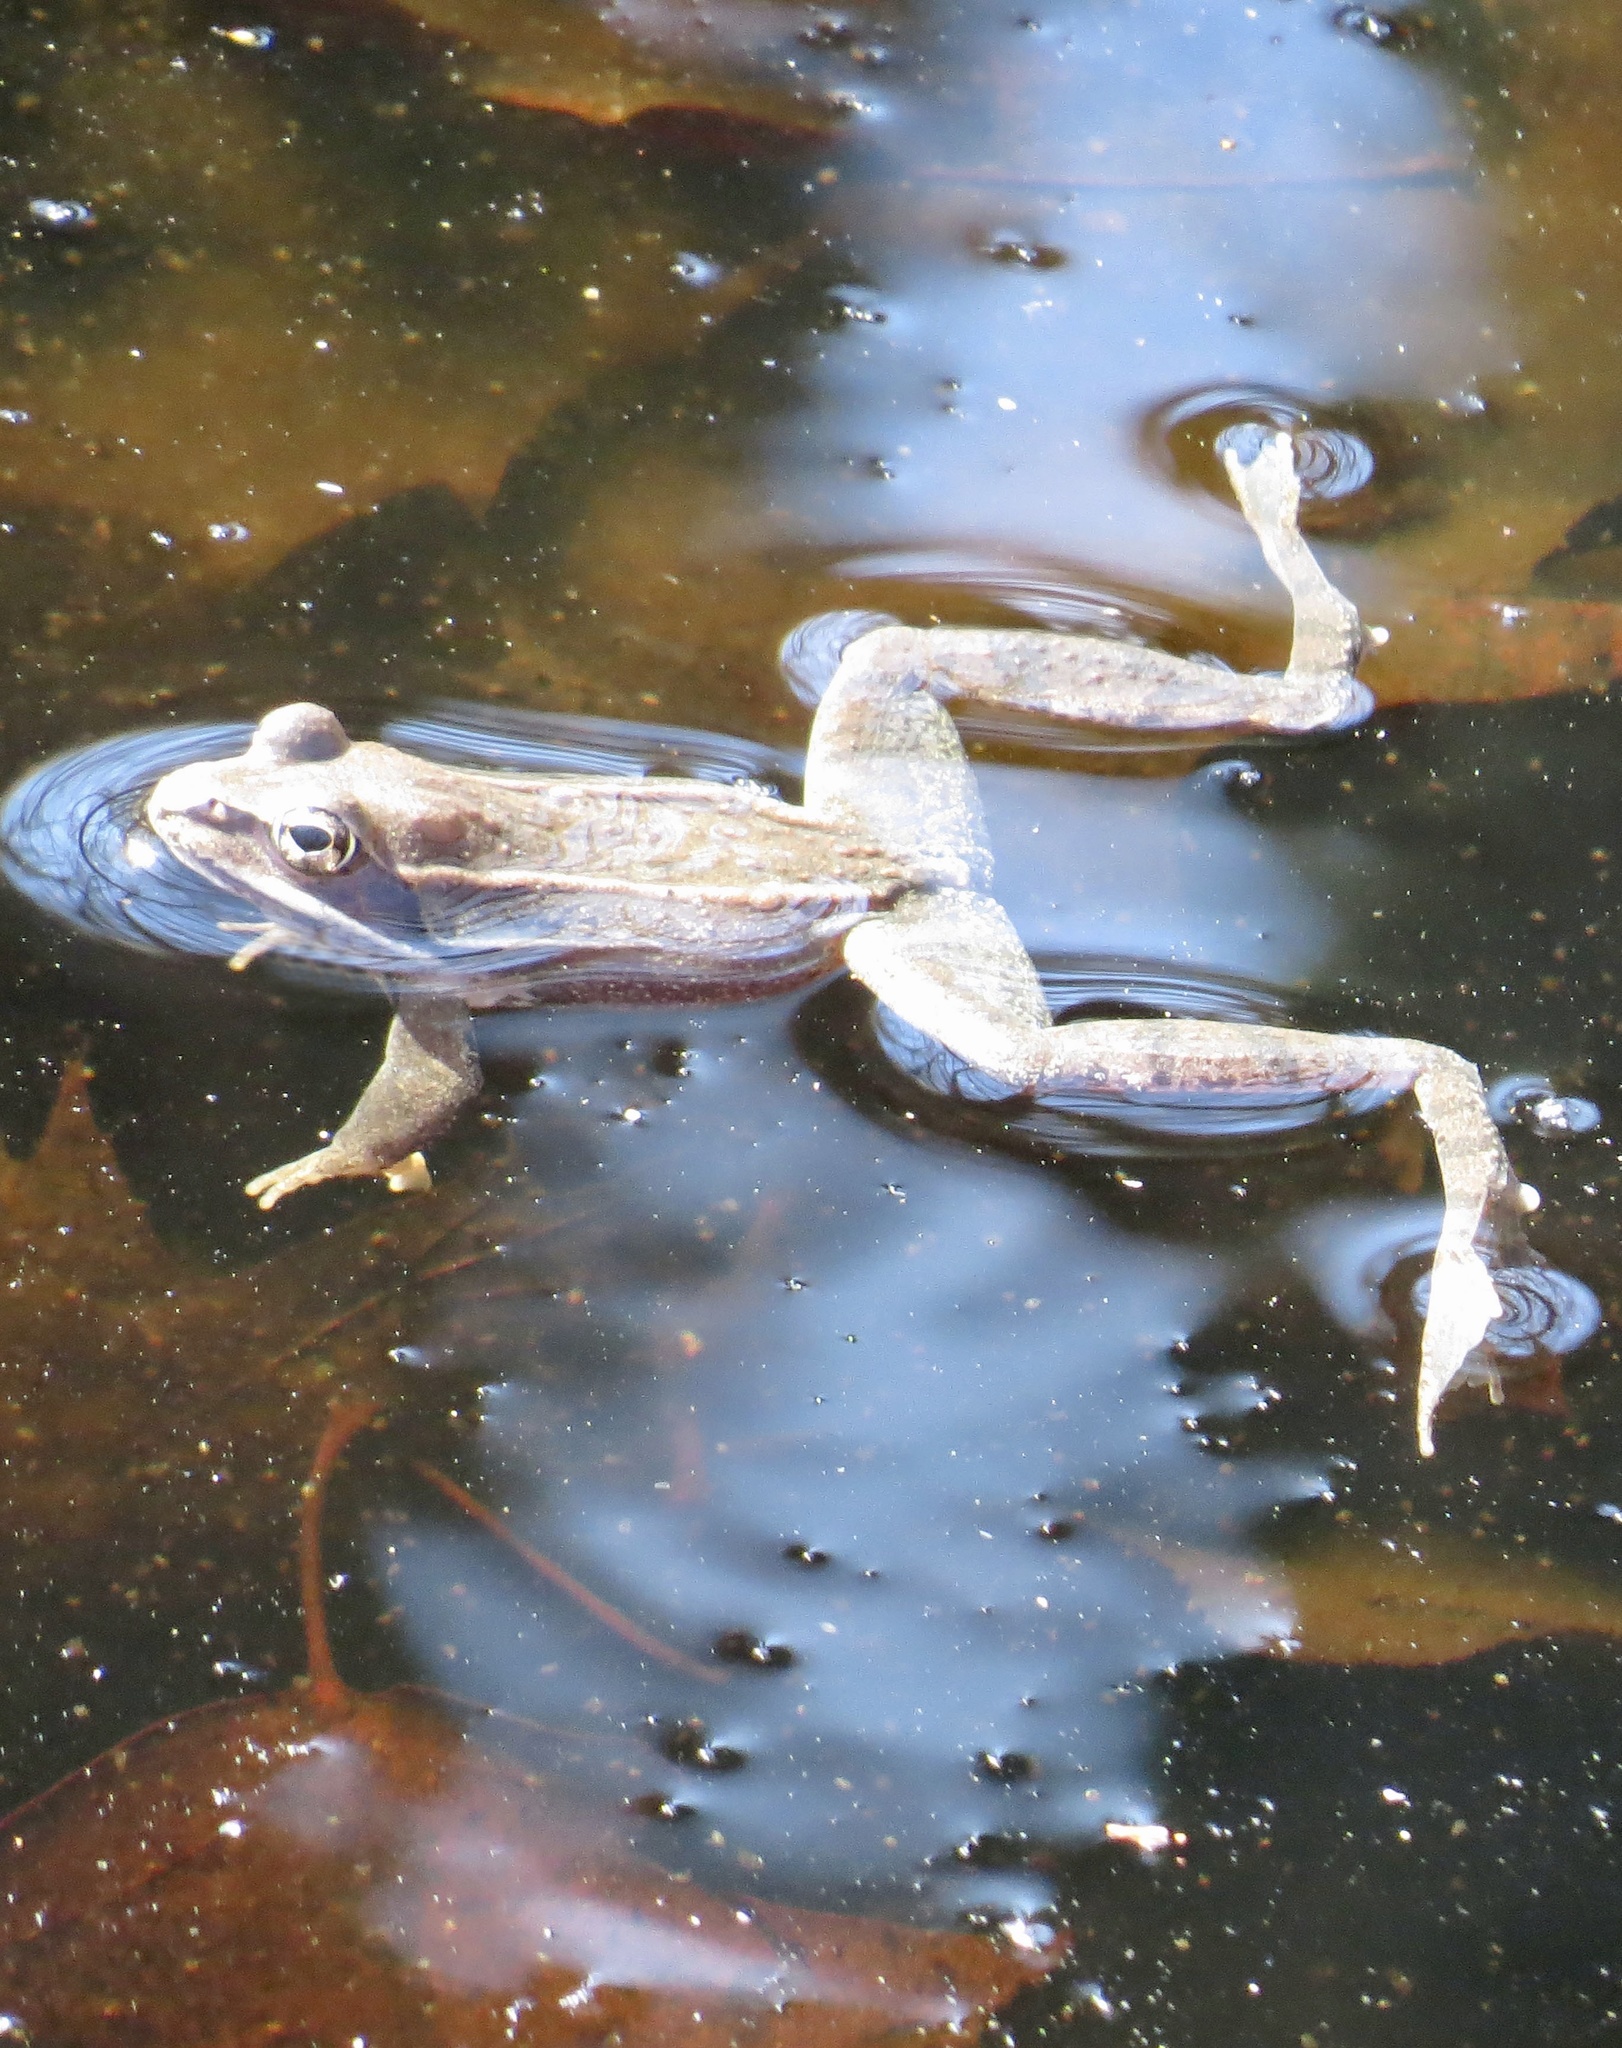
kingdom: Animalia
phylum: Chordata
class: Amphibia
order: Anura
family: Ranidae
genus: Lithobates
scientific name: Lithobates sylvaticus
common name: Wood frog
